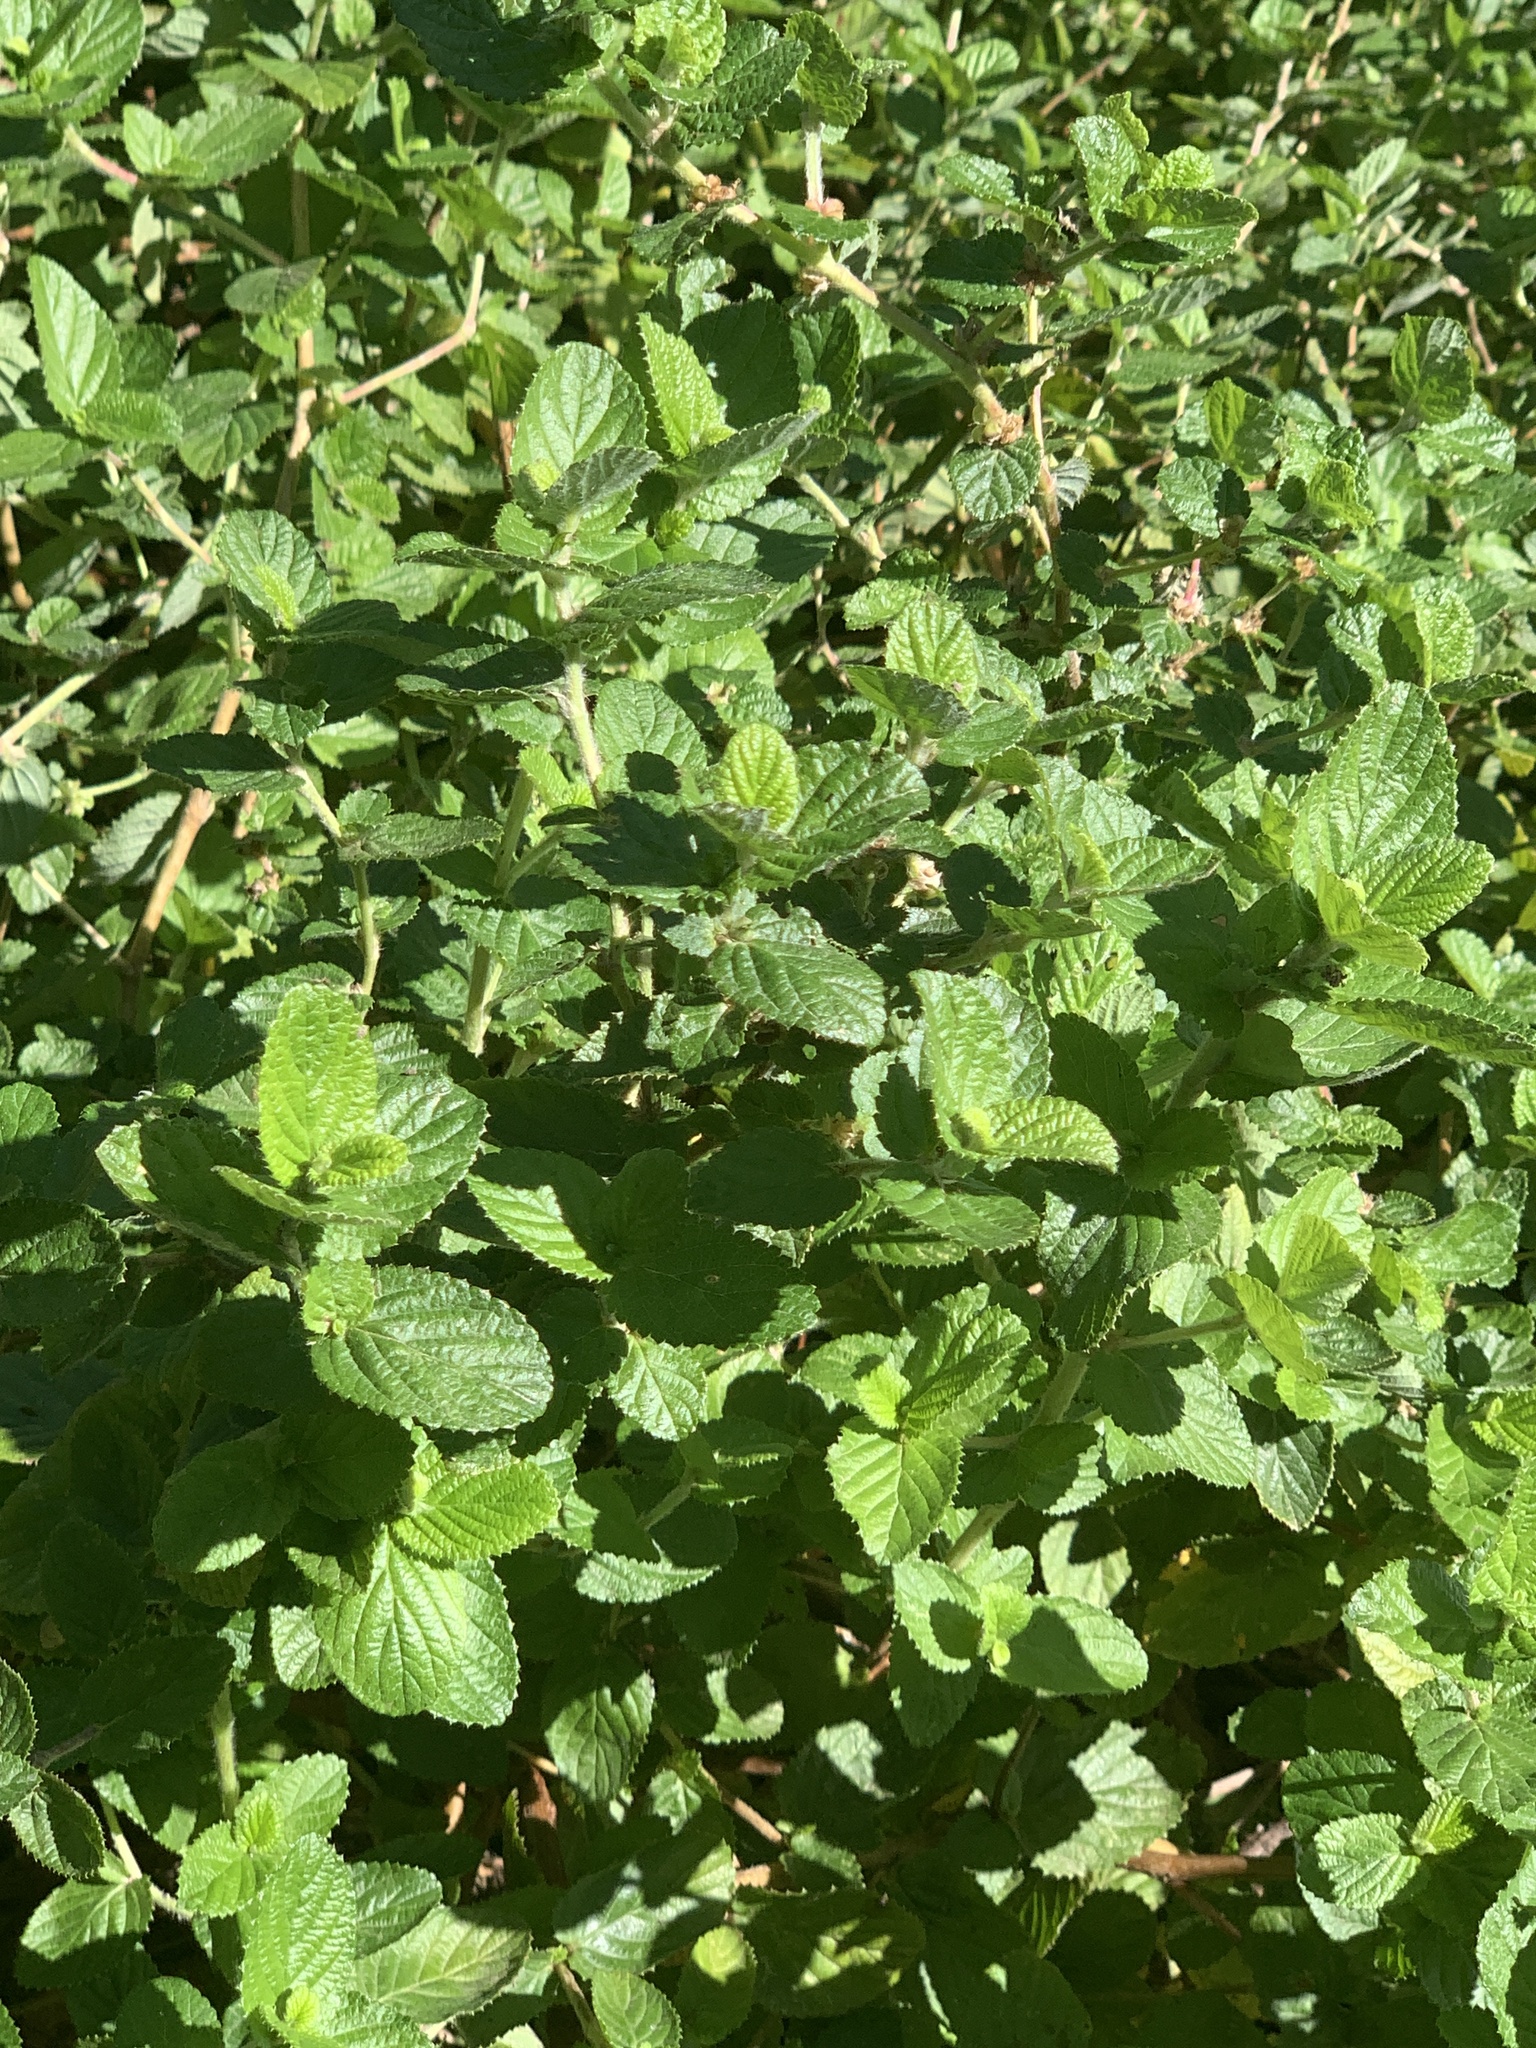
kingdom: Plantae
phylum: Tracheophyta
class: Magnoliopsida
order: Rosales
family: Rosaceae
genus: Cliffortia
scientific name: Cliffortia odorata
